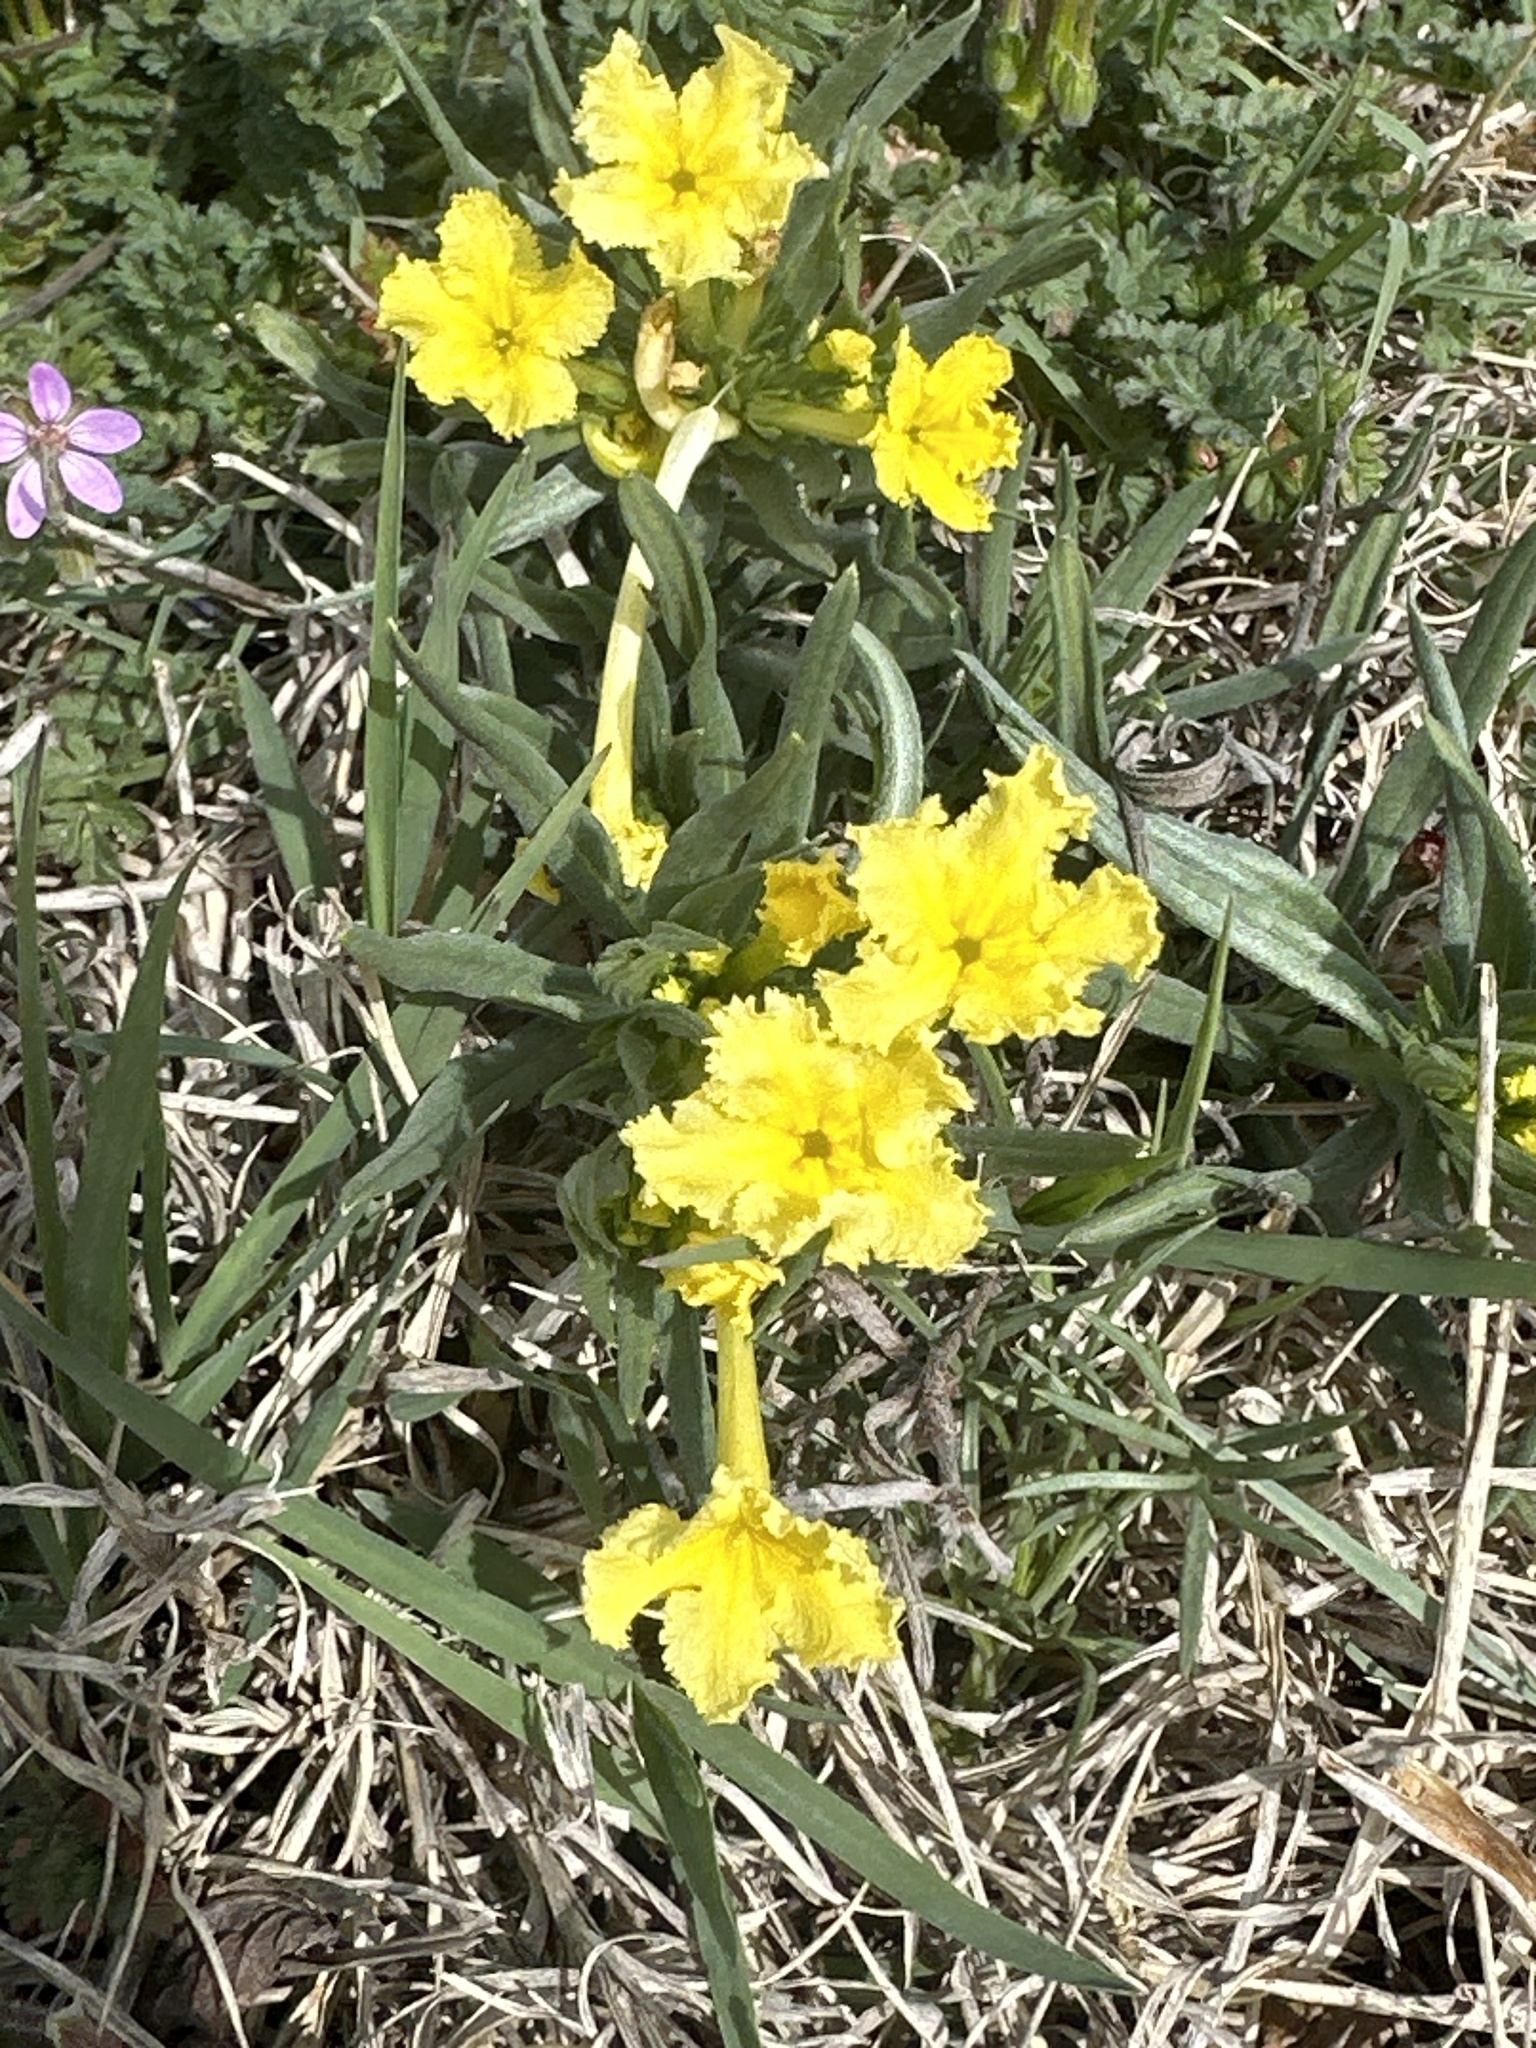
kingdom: Plantae
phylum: Tracheophyta
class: Magnoliopsida
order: Boraginales
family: Boraginaceae
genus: Lithospermum
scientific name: Lithospermum incisum
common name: Fringed gromwell
